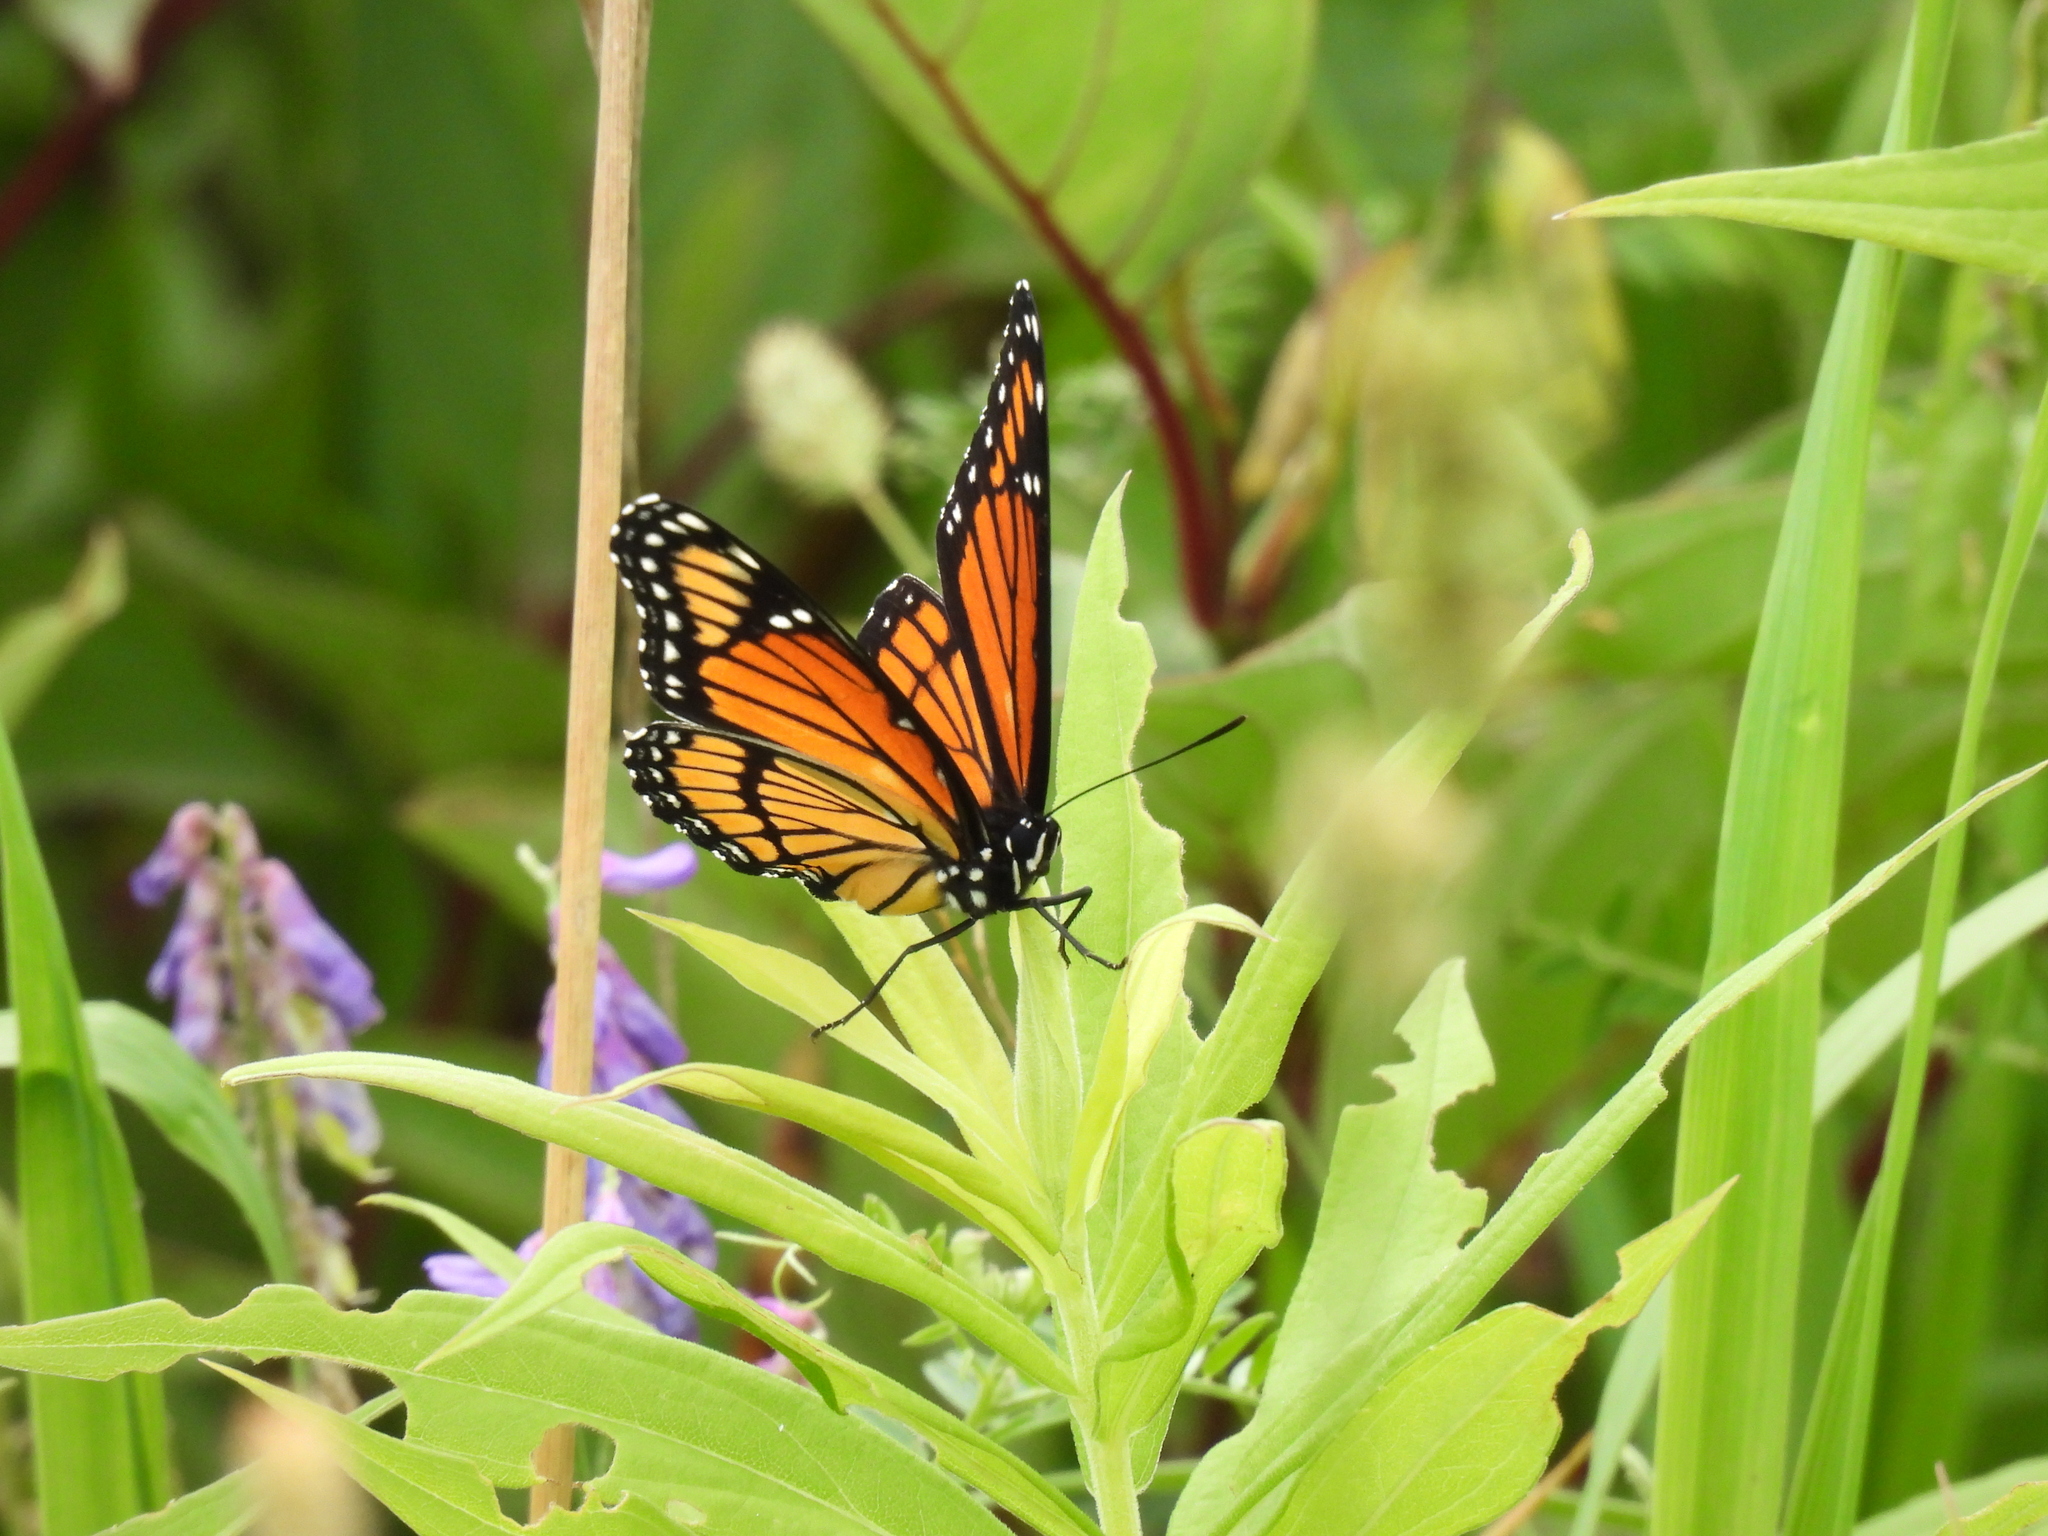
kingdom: Animalia
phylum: Arthropoda
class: Insecta
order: Lepidoptera
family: Nymphalidae
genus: Limenitis
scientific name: Limenitis archippus
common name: Viceroy
